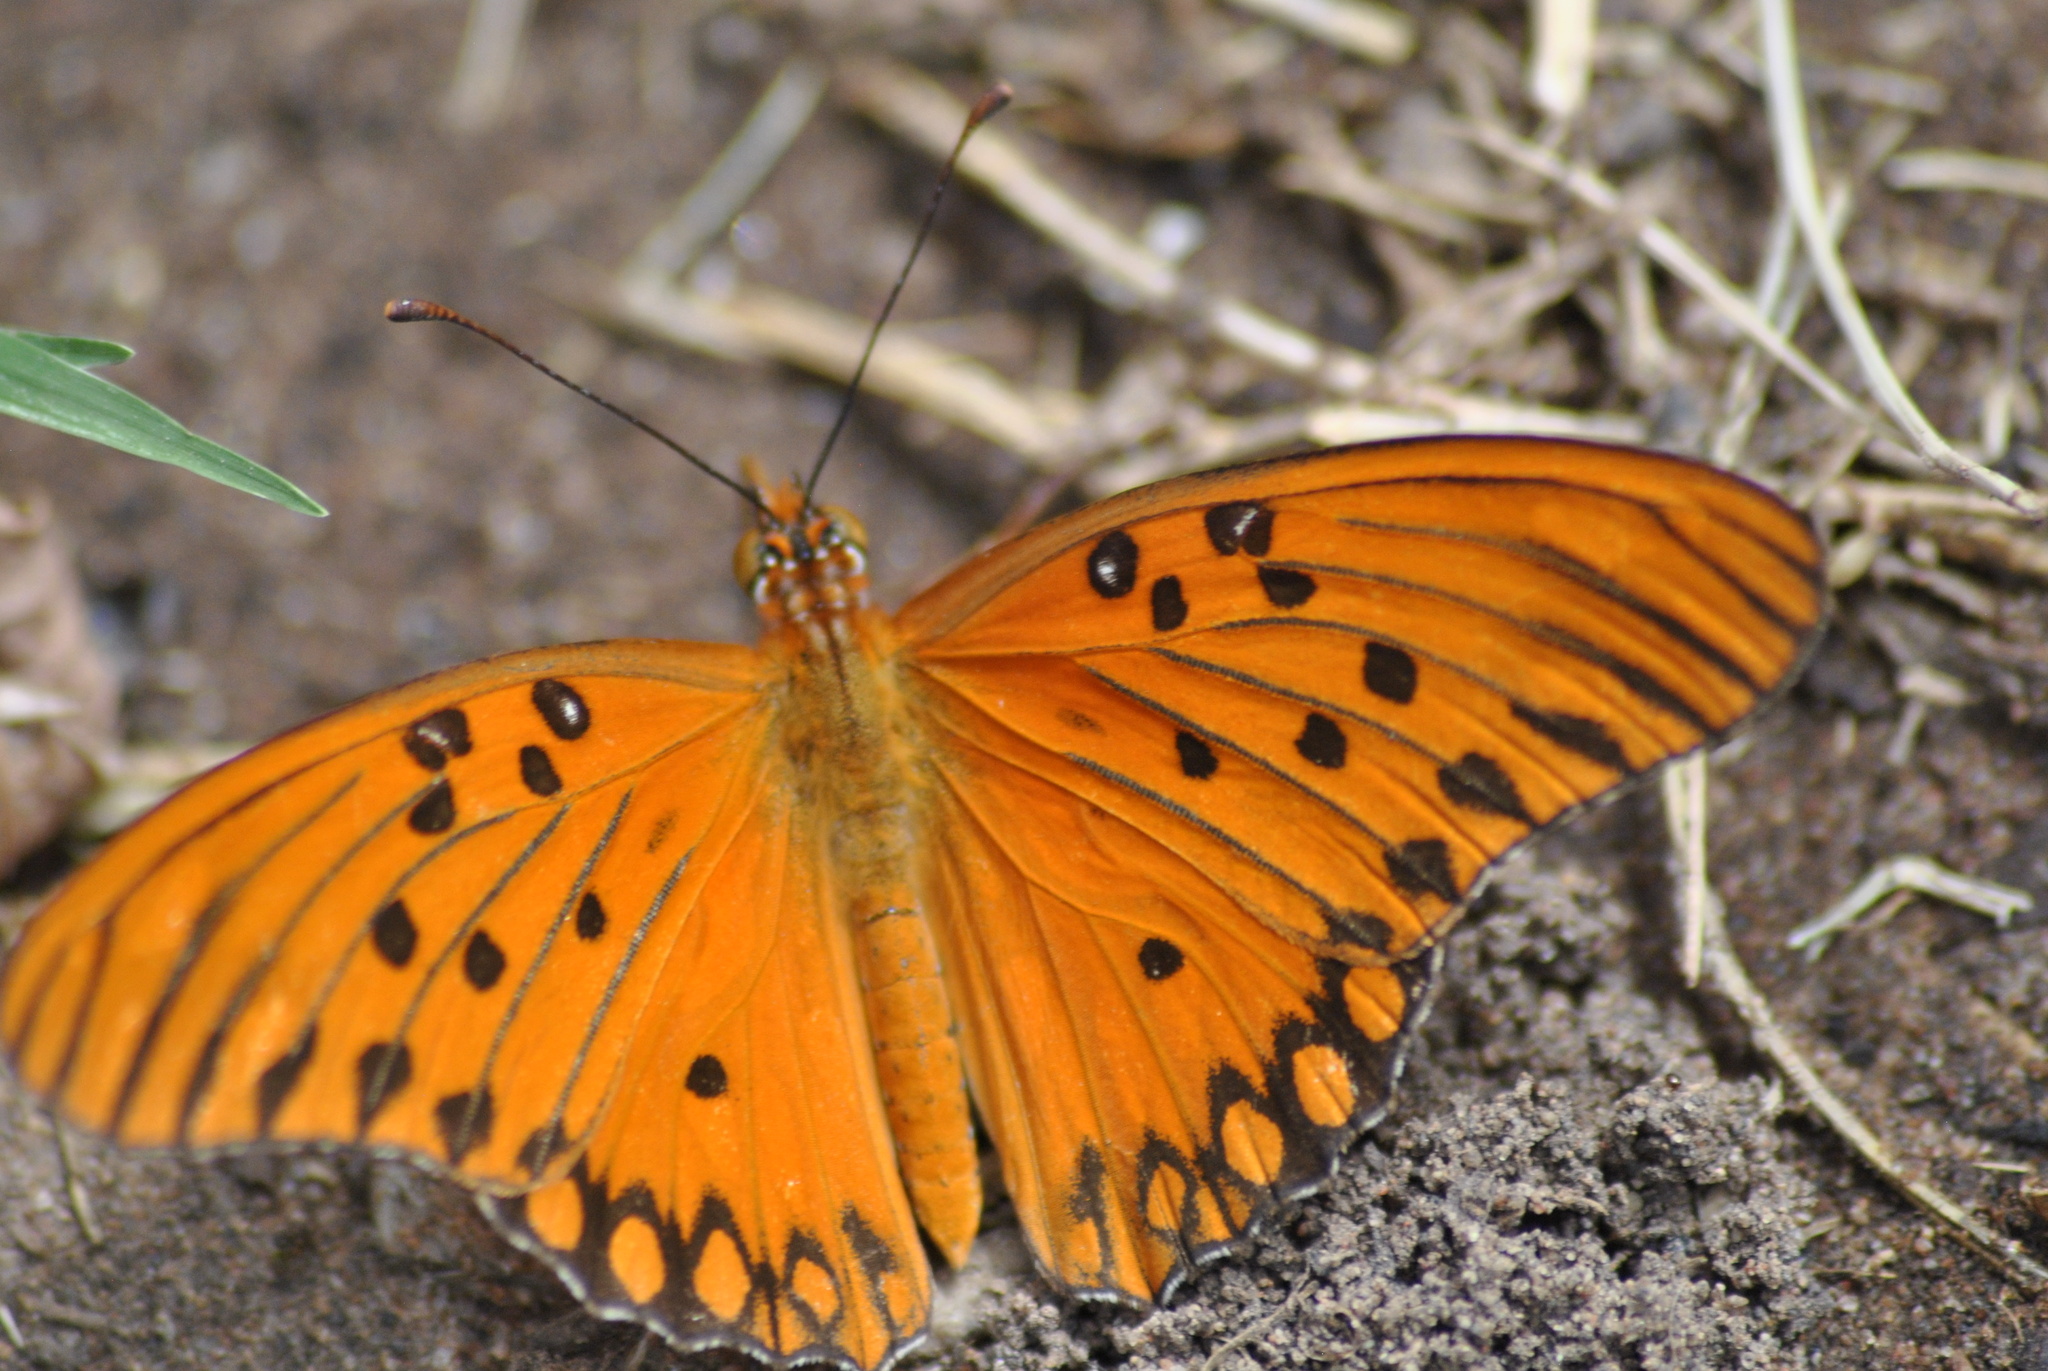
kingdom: Animalia
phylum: Arthropoda
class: Insecta
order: Lepidoptera
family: Nymphalidae
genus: Dione
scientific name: Dione vanillae
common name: Gulf fritillary
